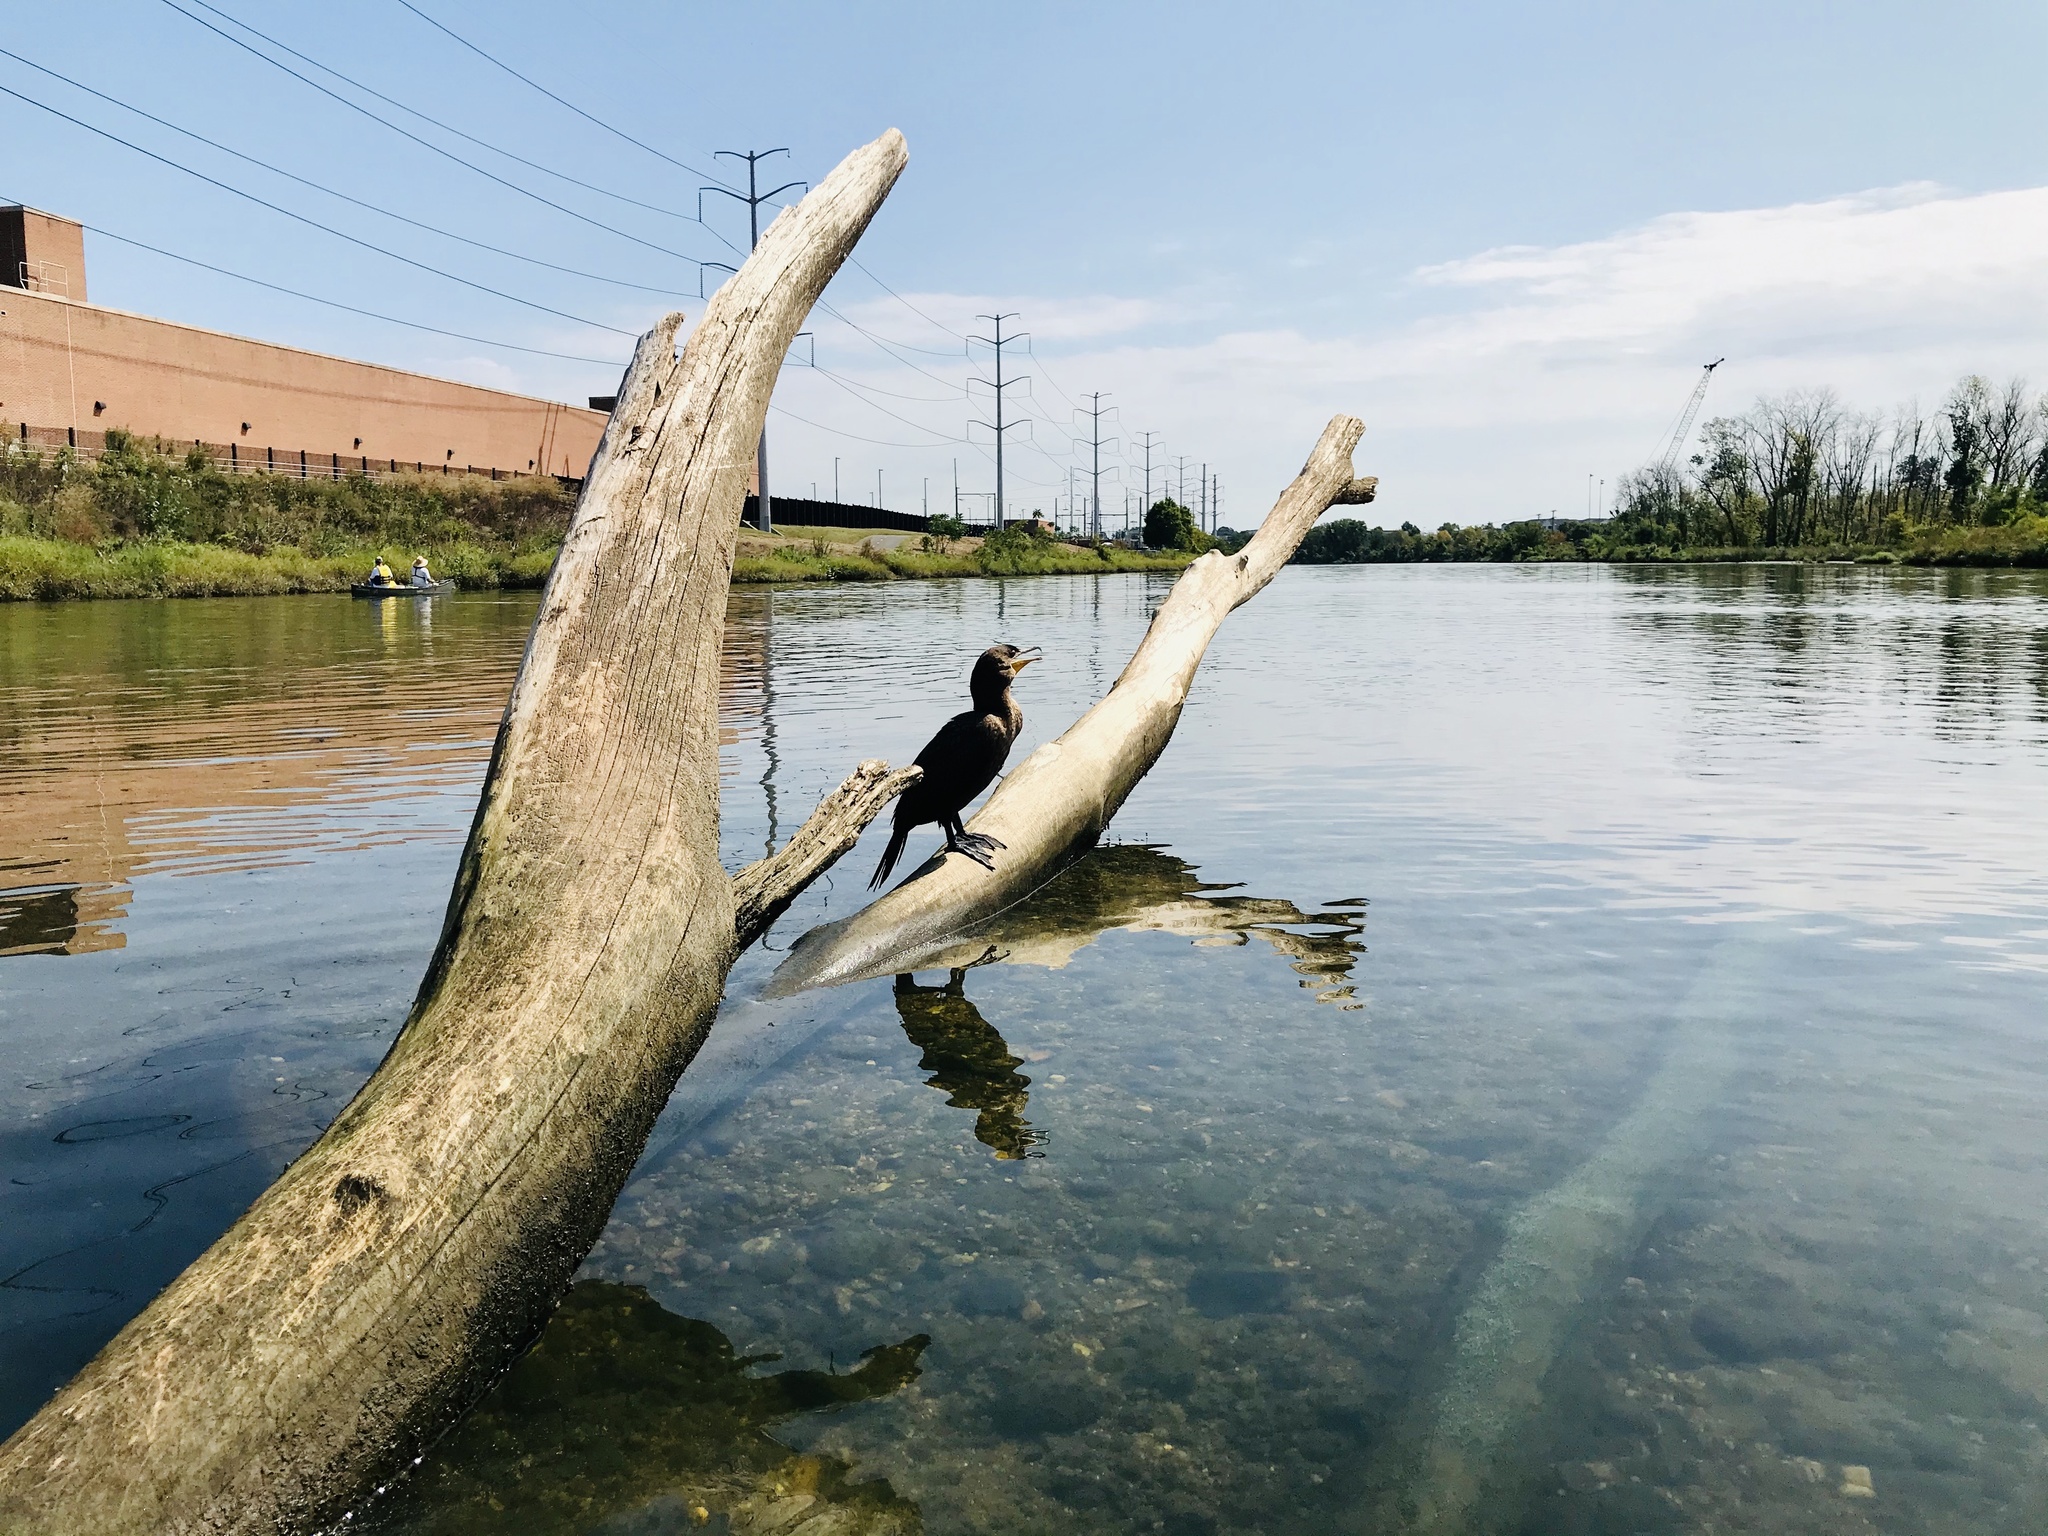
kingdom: Animalia
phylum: Chordata
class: Aves
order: Suliformes
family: Phalacrocoracidae
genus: Phalacrocorax
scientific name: Phalacrocorax auritus
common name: Double-crested cormorant
